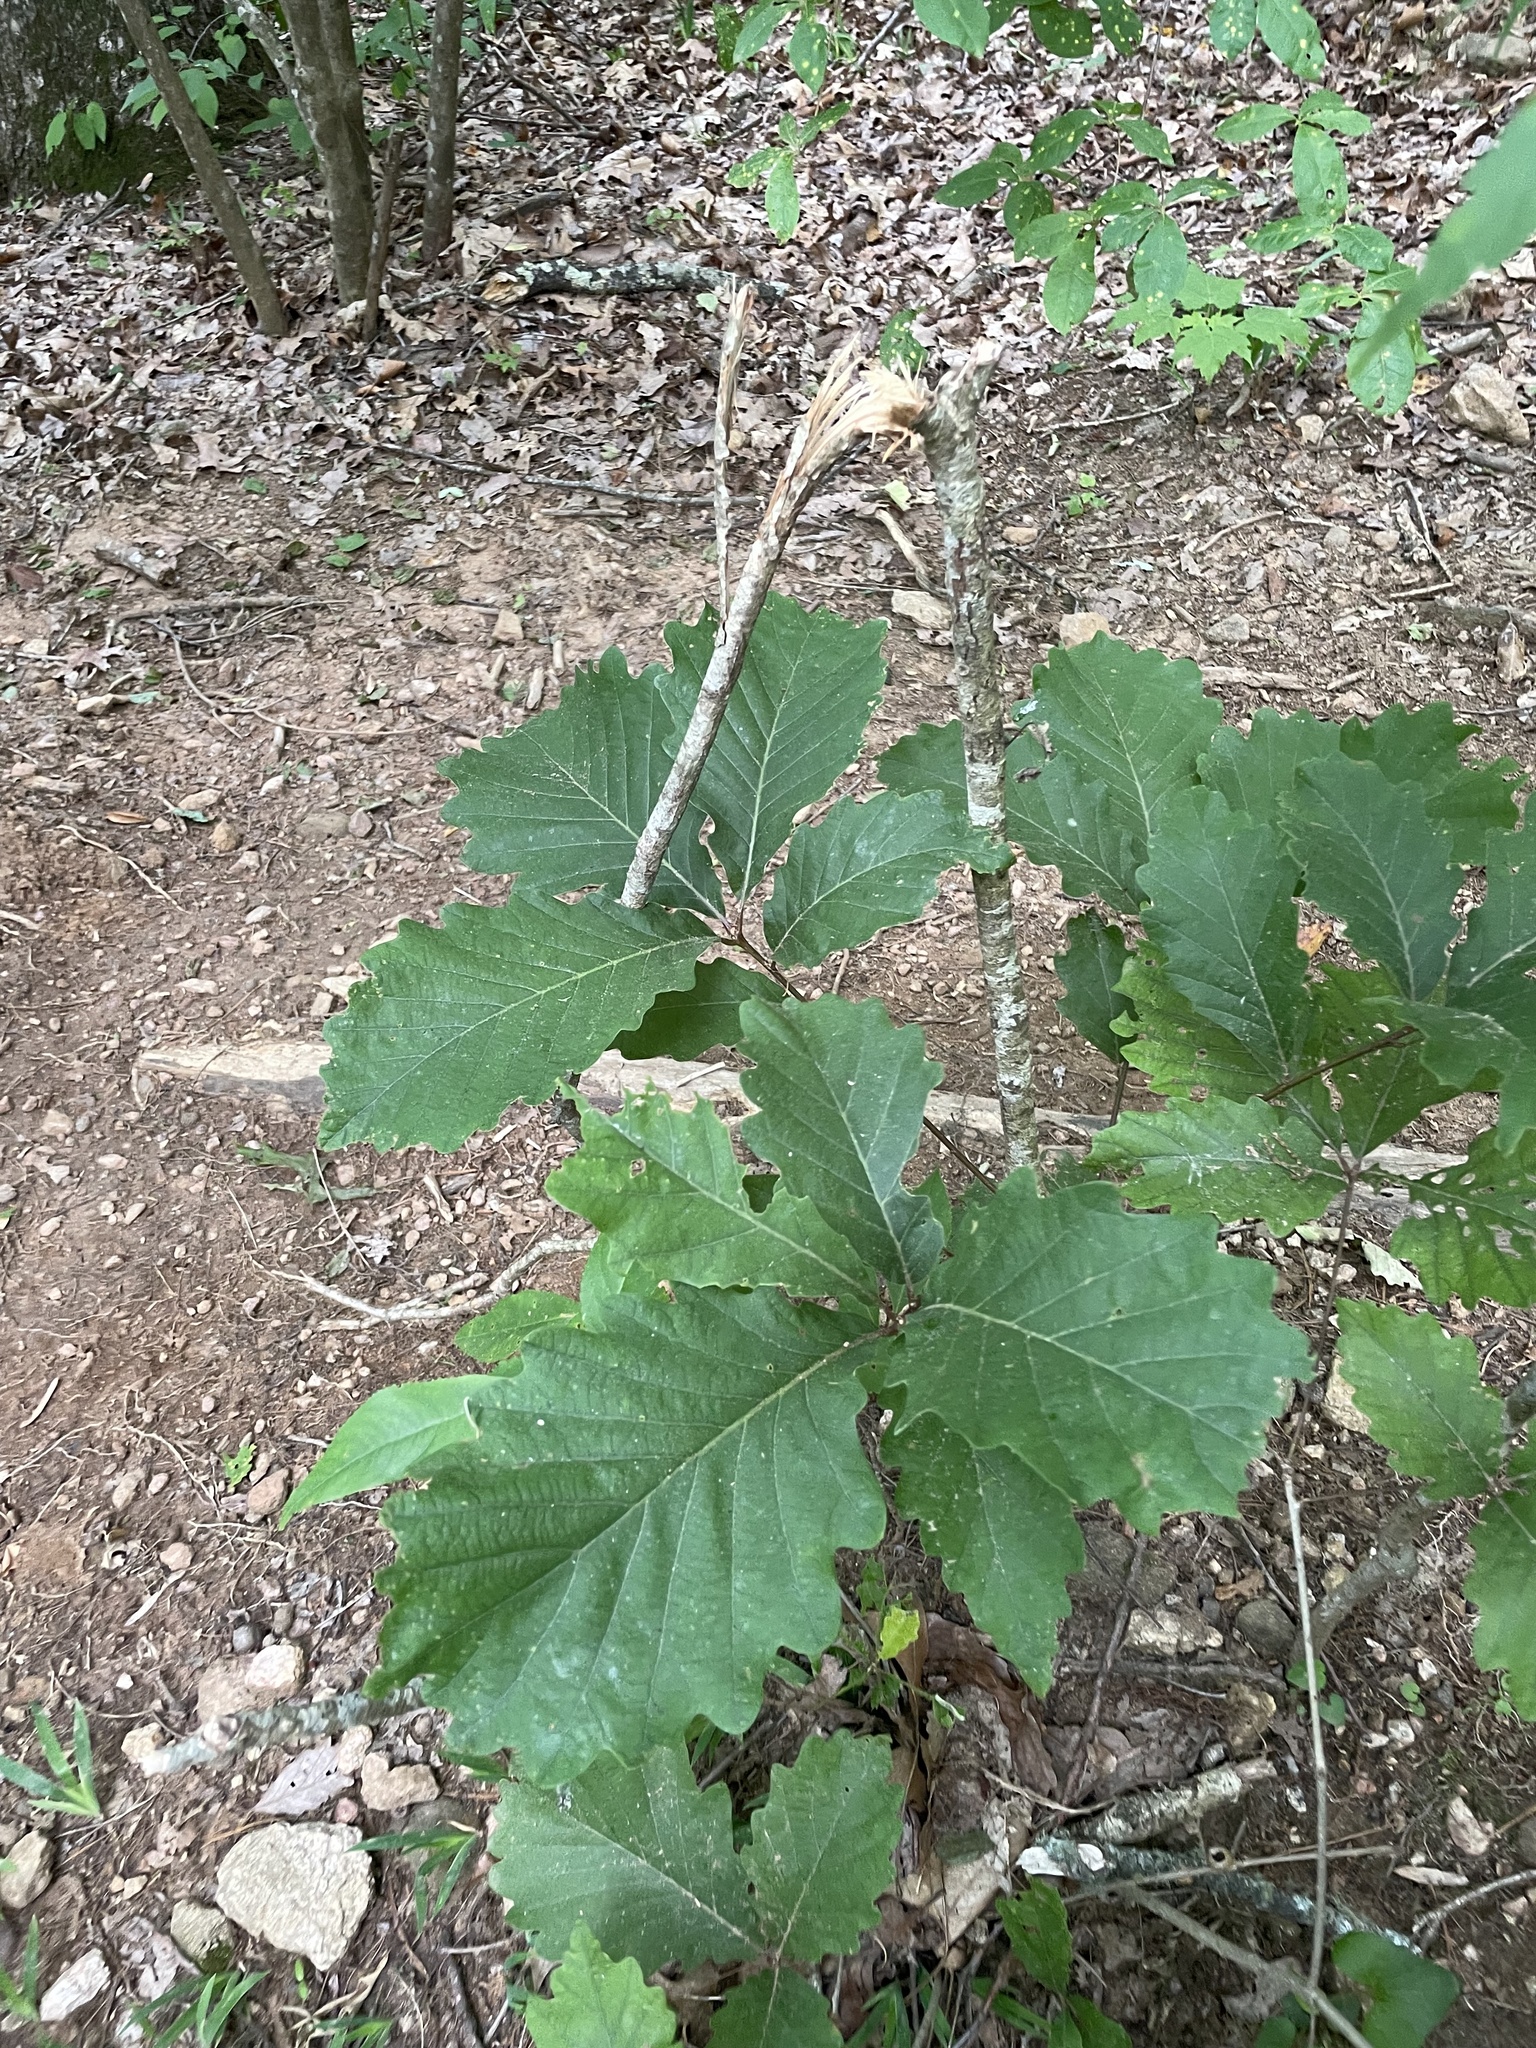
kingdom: Plantae
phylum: Tracheophyta
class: Magnoliopsida
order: Saxifragales
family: Hamamelidaceae
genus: Hamamelis
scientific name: Hamamelis virginiana
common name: Witch-hazel
